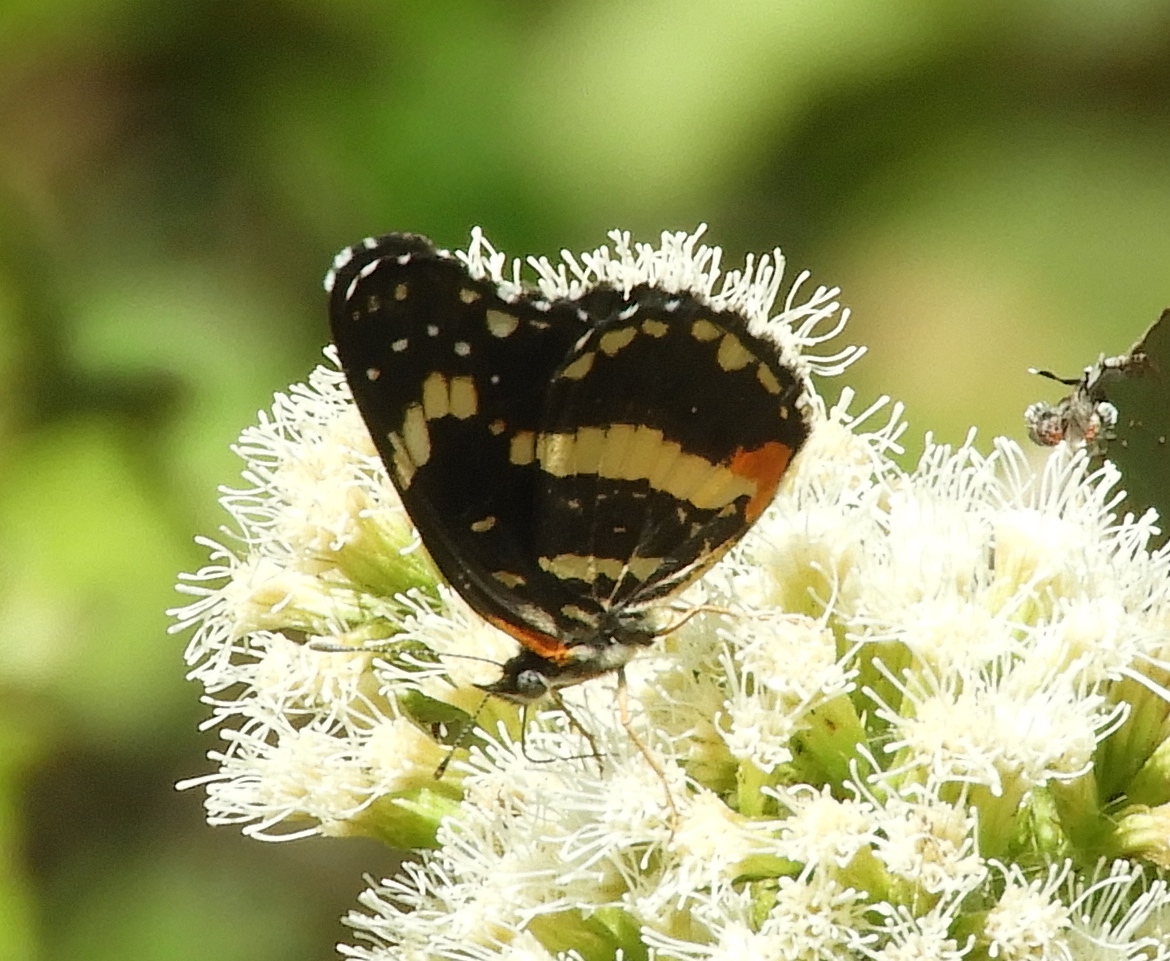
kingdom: Animalia
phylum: Arthropoda
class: Insecta
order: Lepidoptera
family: Nymphalidae
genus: Chlosyne
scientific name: Chlosyne lacinia
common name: Bordered patch
